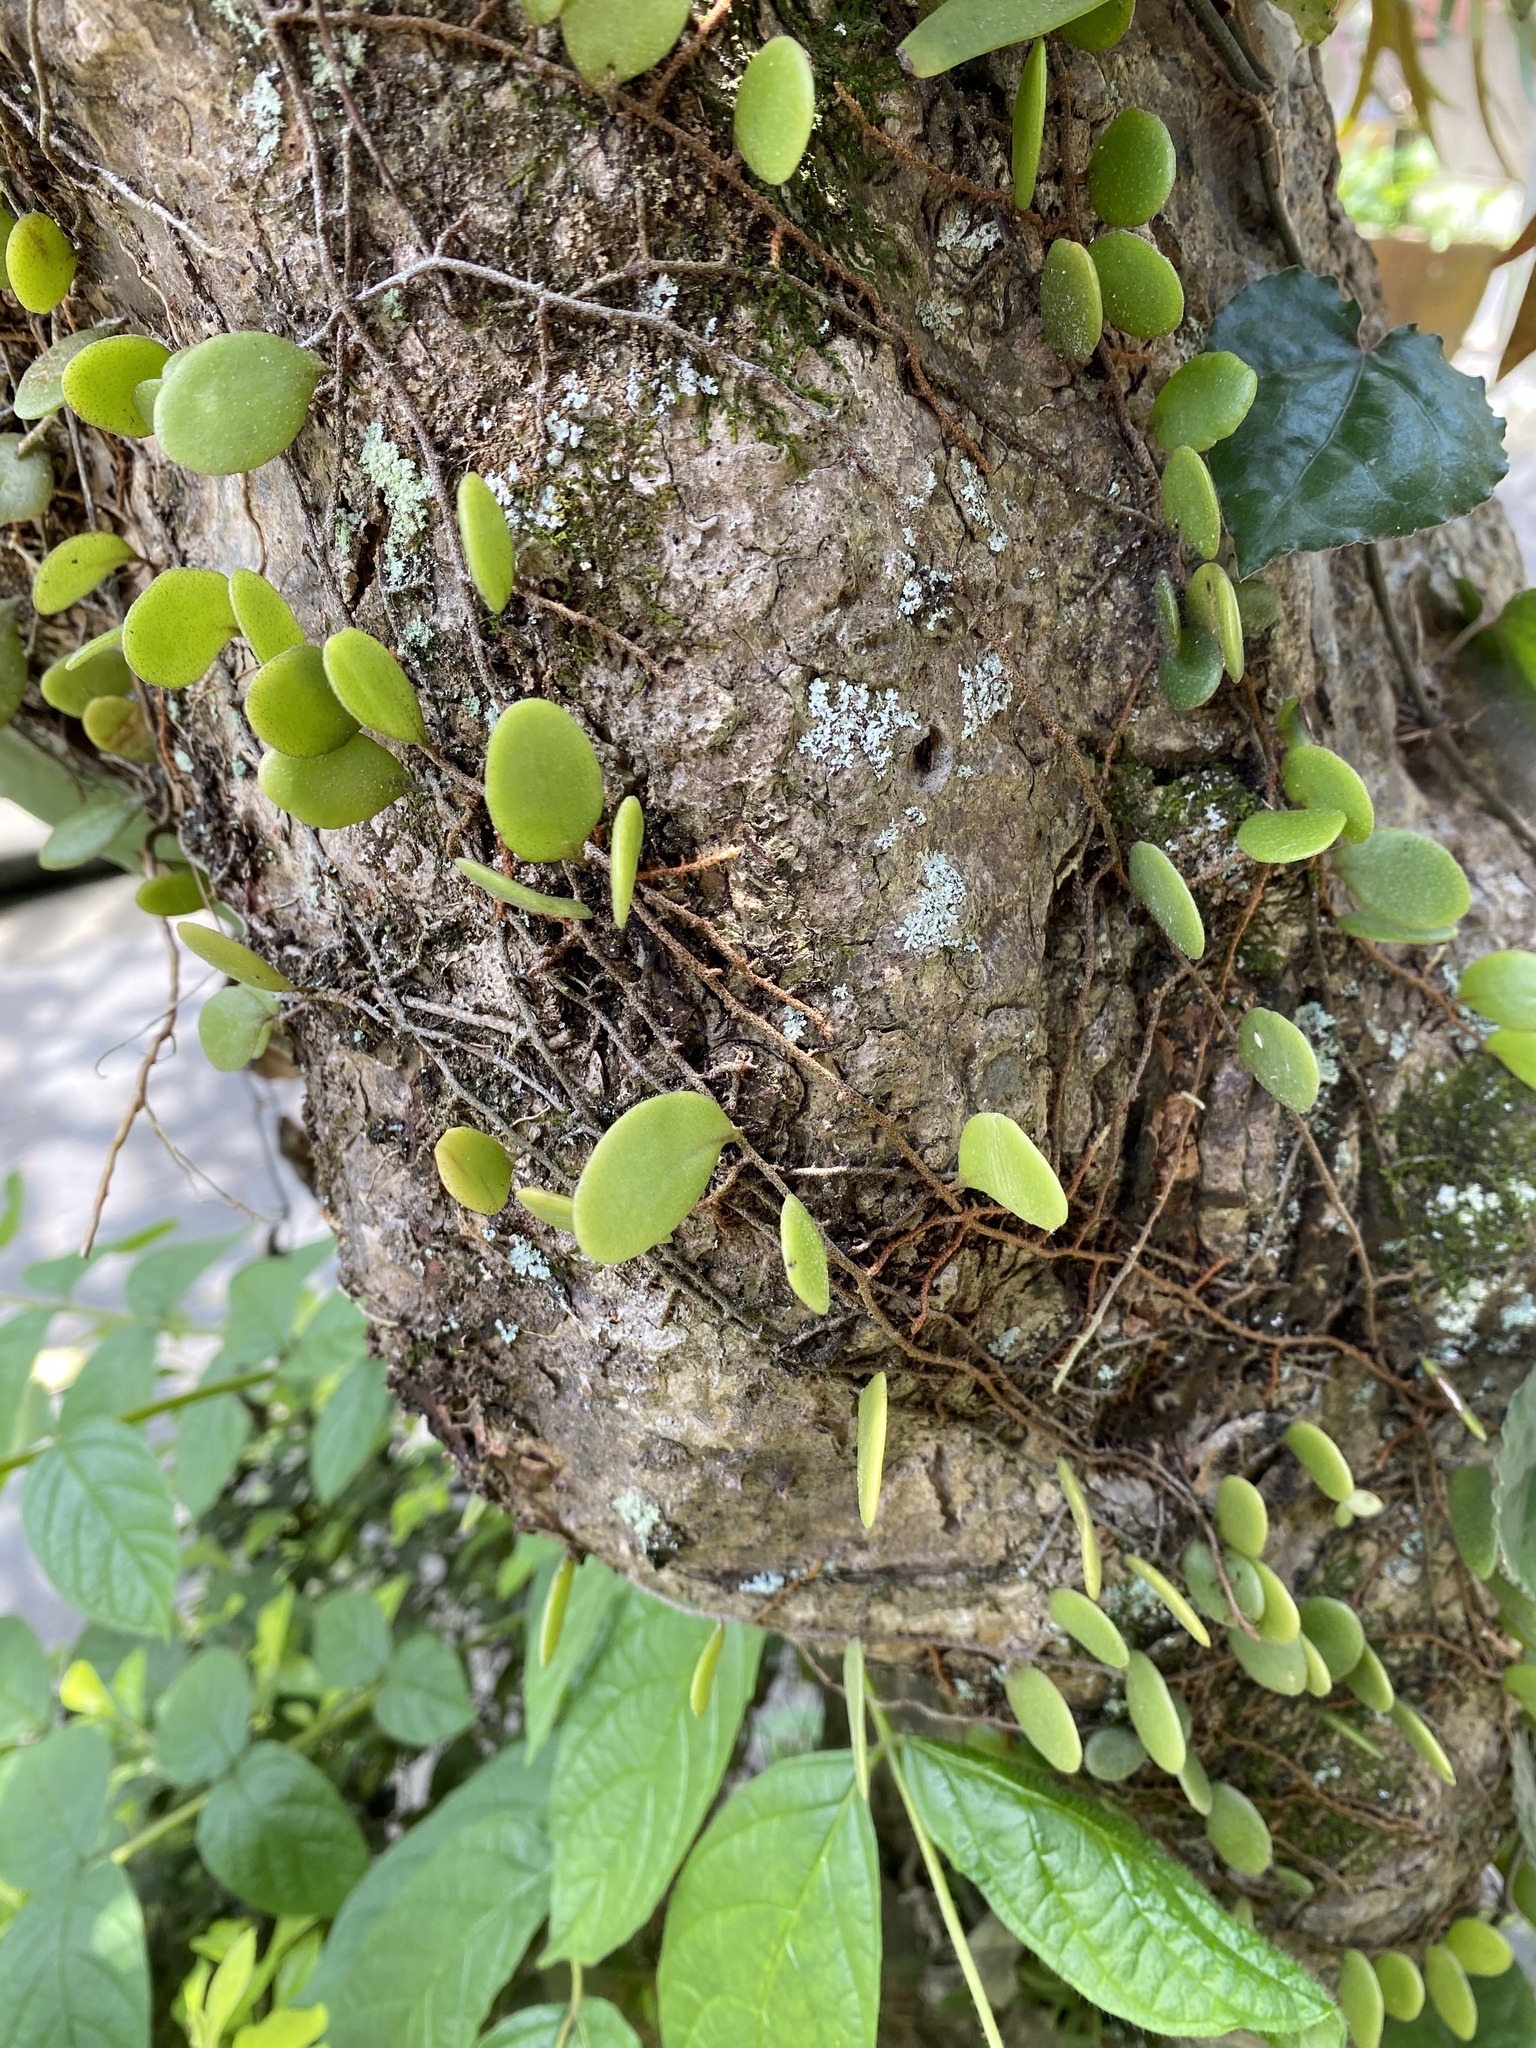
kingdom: Plantae
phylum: Tracheophyta
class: Polypodiopsida
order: Polypodiales
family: Polypodiaceae
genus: Pyrrosia
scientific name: Pyrrosia piloselloides
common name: Epiphytic creeping fern
